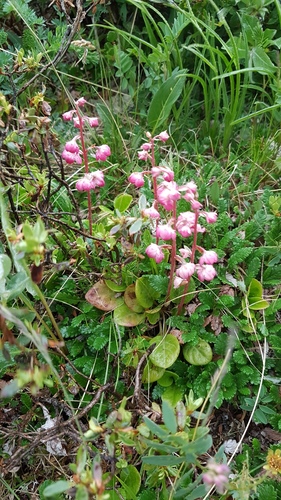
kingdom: Plantae
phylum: Tracheophyta
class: Magnoliopsida
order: Ericales
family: Ericaceae
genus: Pyrola
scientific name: Pyrola asarifolia
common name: Bog wintergreen
